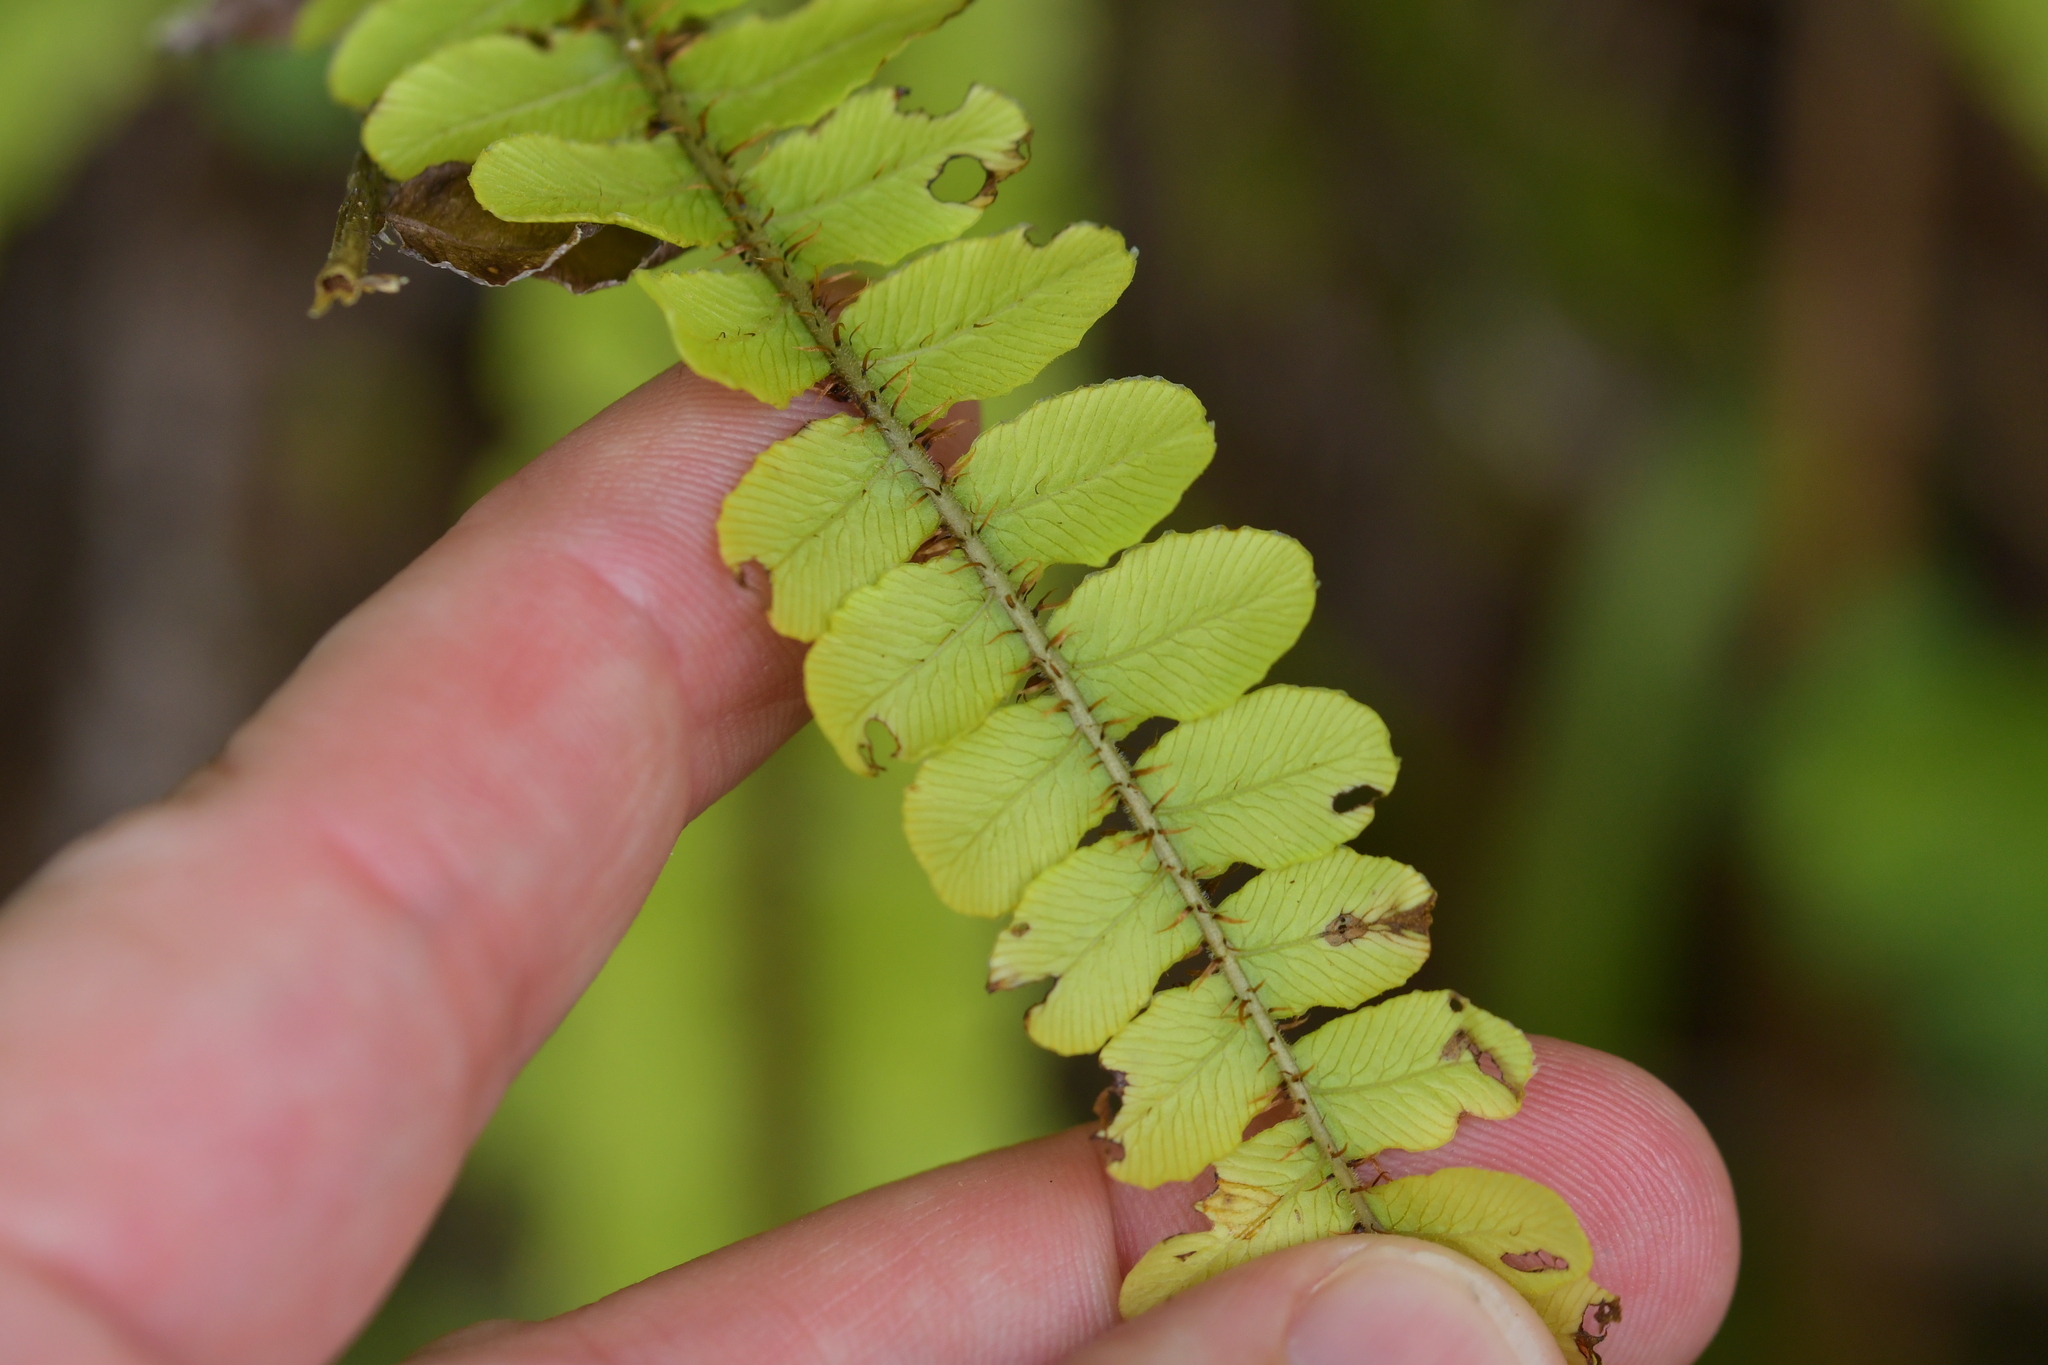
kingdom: Plantae
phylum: Tracheophyta
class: Polypodiopsida
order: Polypodiales
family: Blechnaceae
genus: Cranfillia
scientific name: Cranfillia fluviatilis
